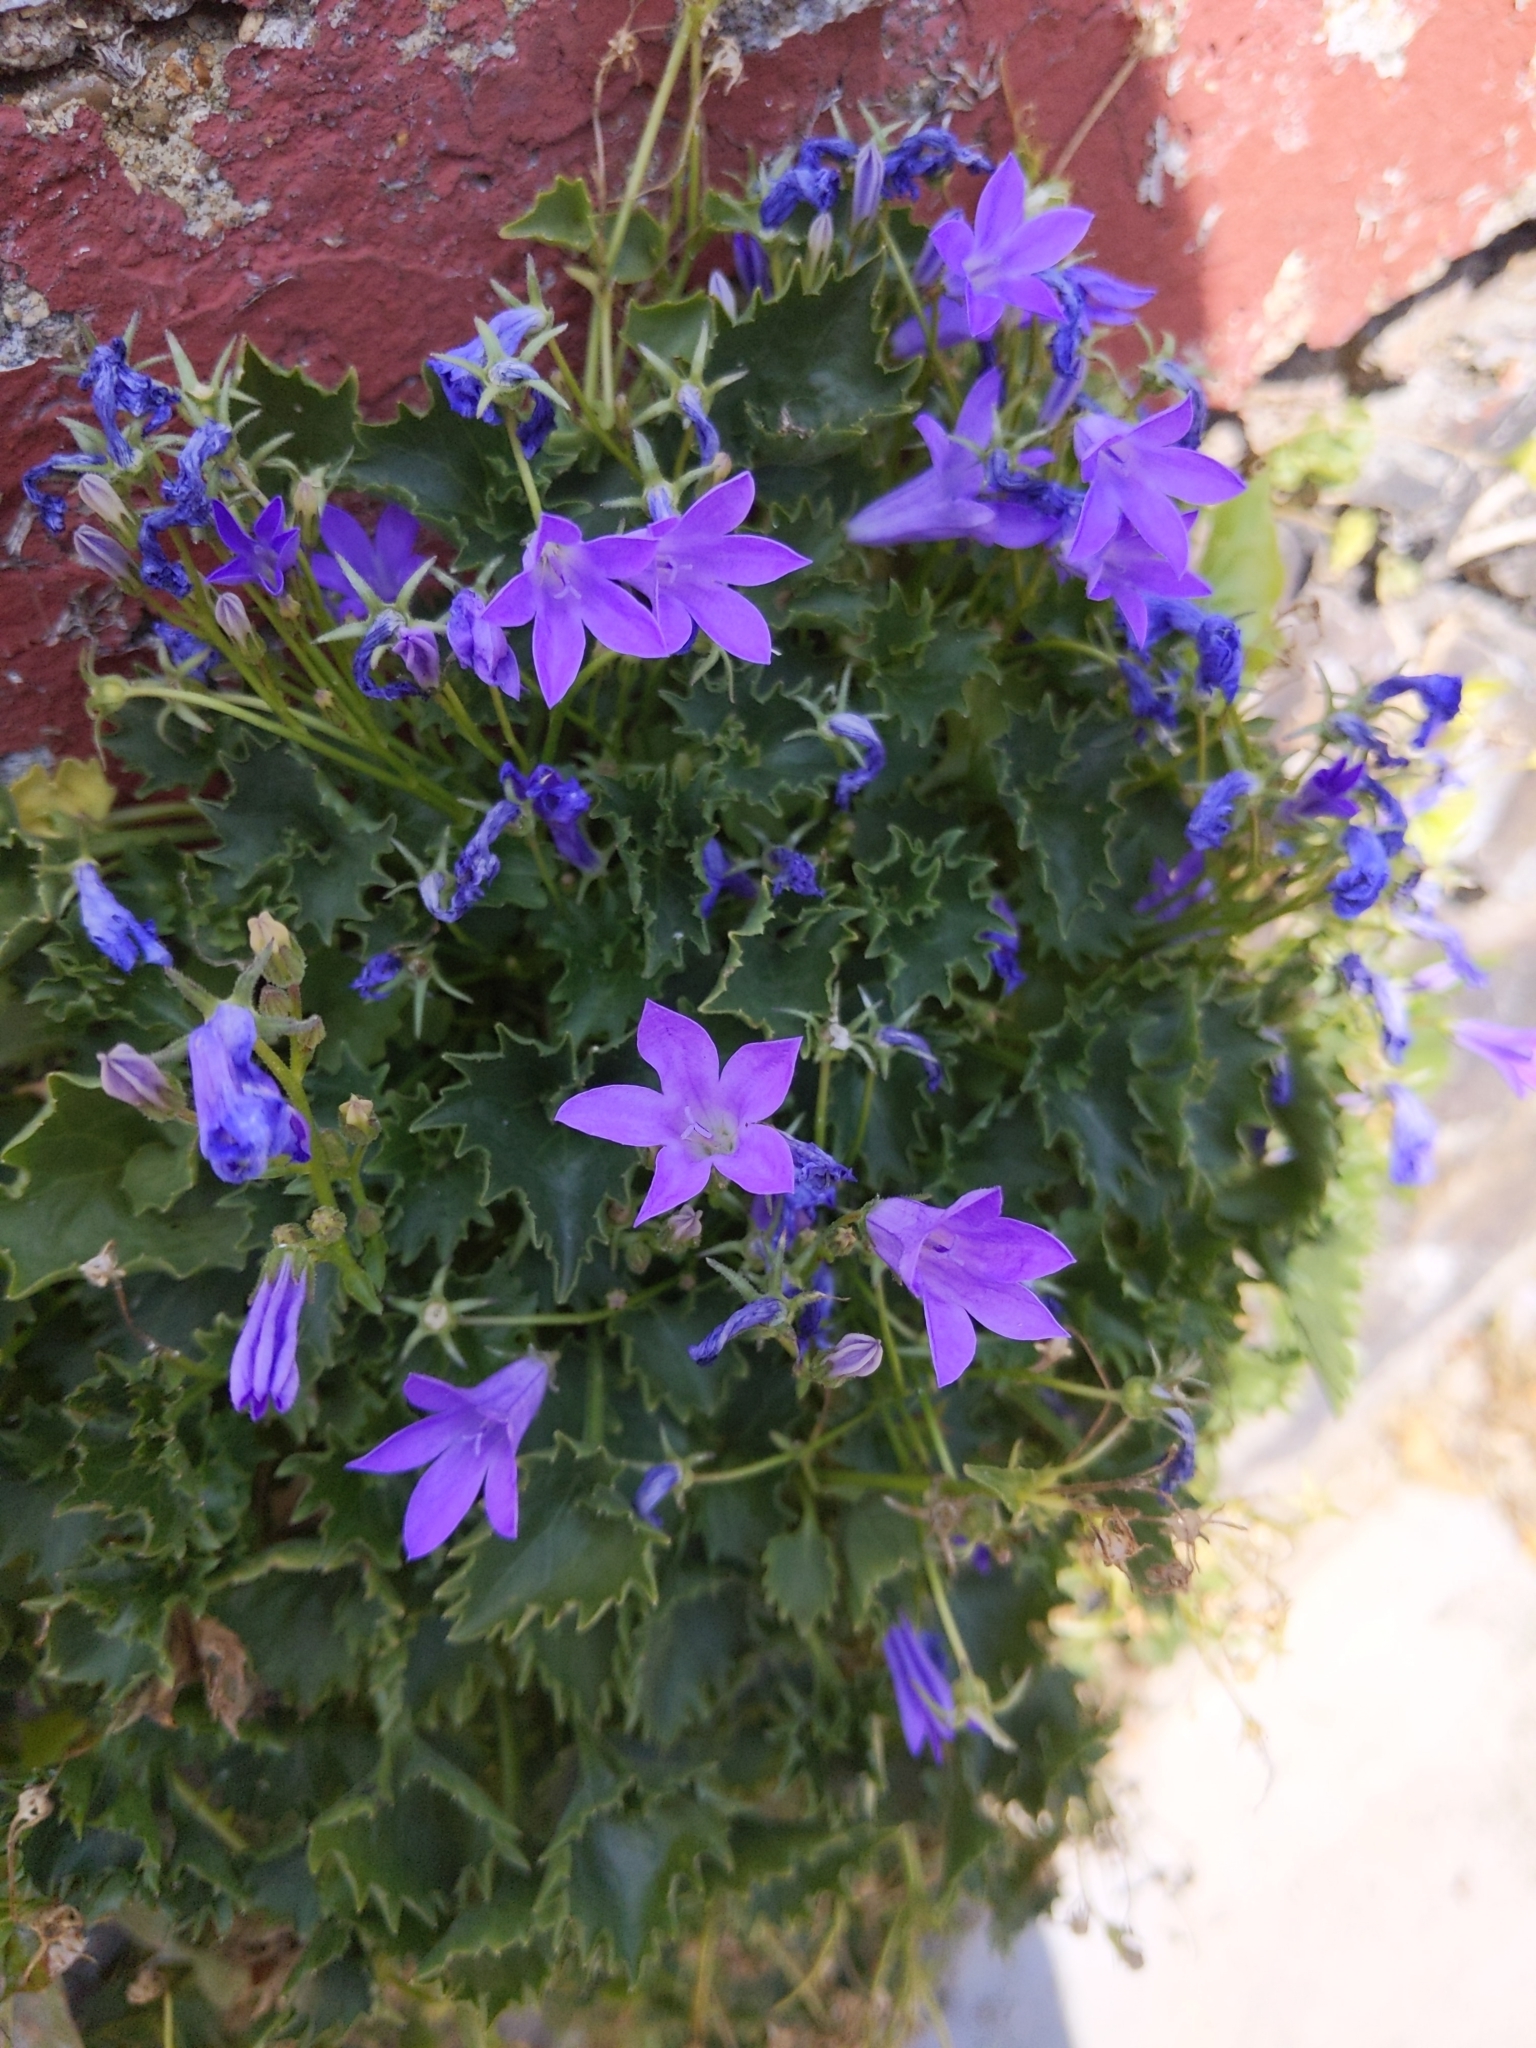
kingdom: Plantae
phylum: Tracheophyta
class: Magnoliopsida
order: Asterales
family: Campanulaceae
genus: Campanula
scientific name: Campanula poscharskyana
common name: Trailing bellflower
